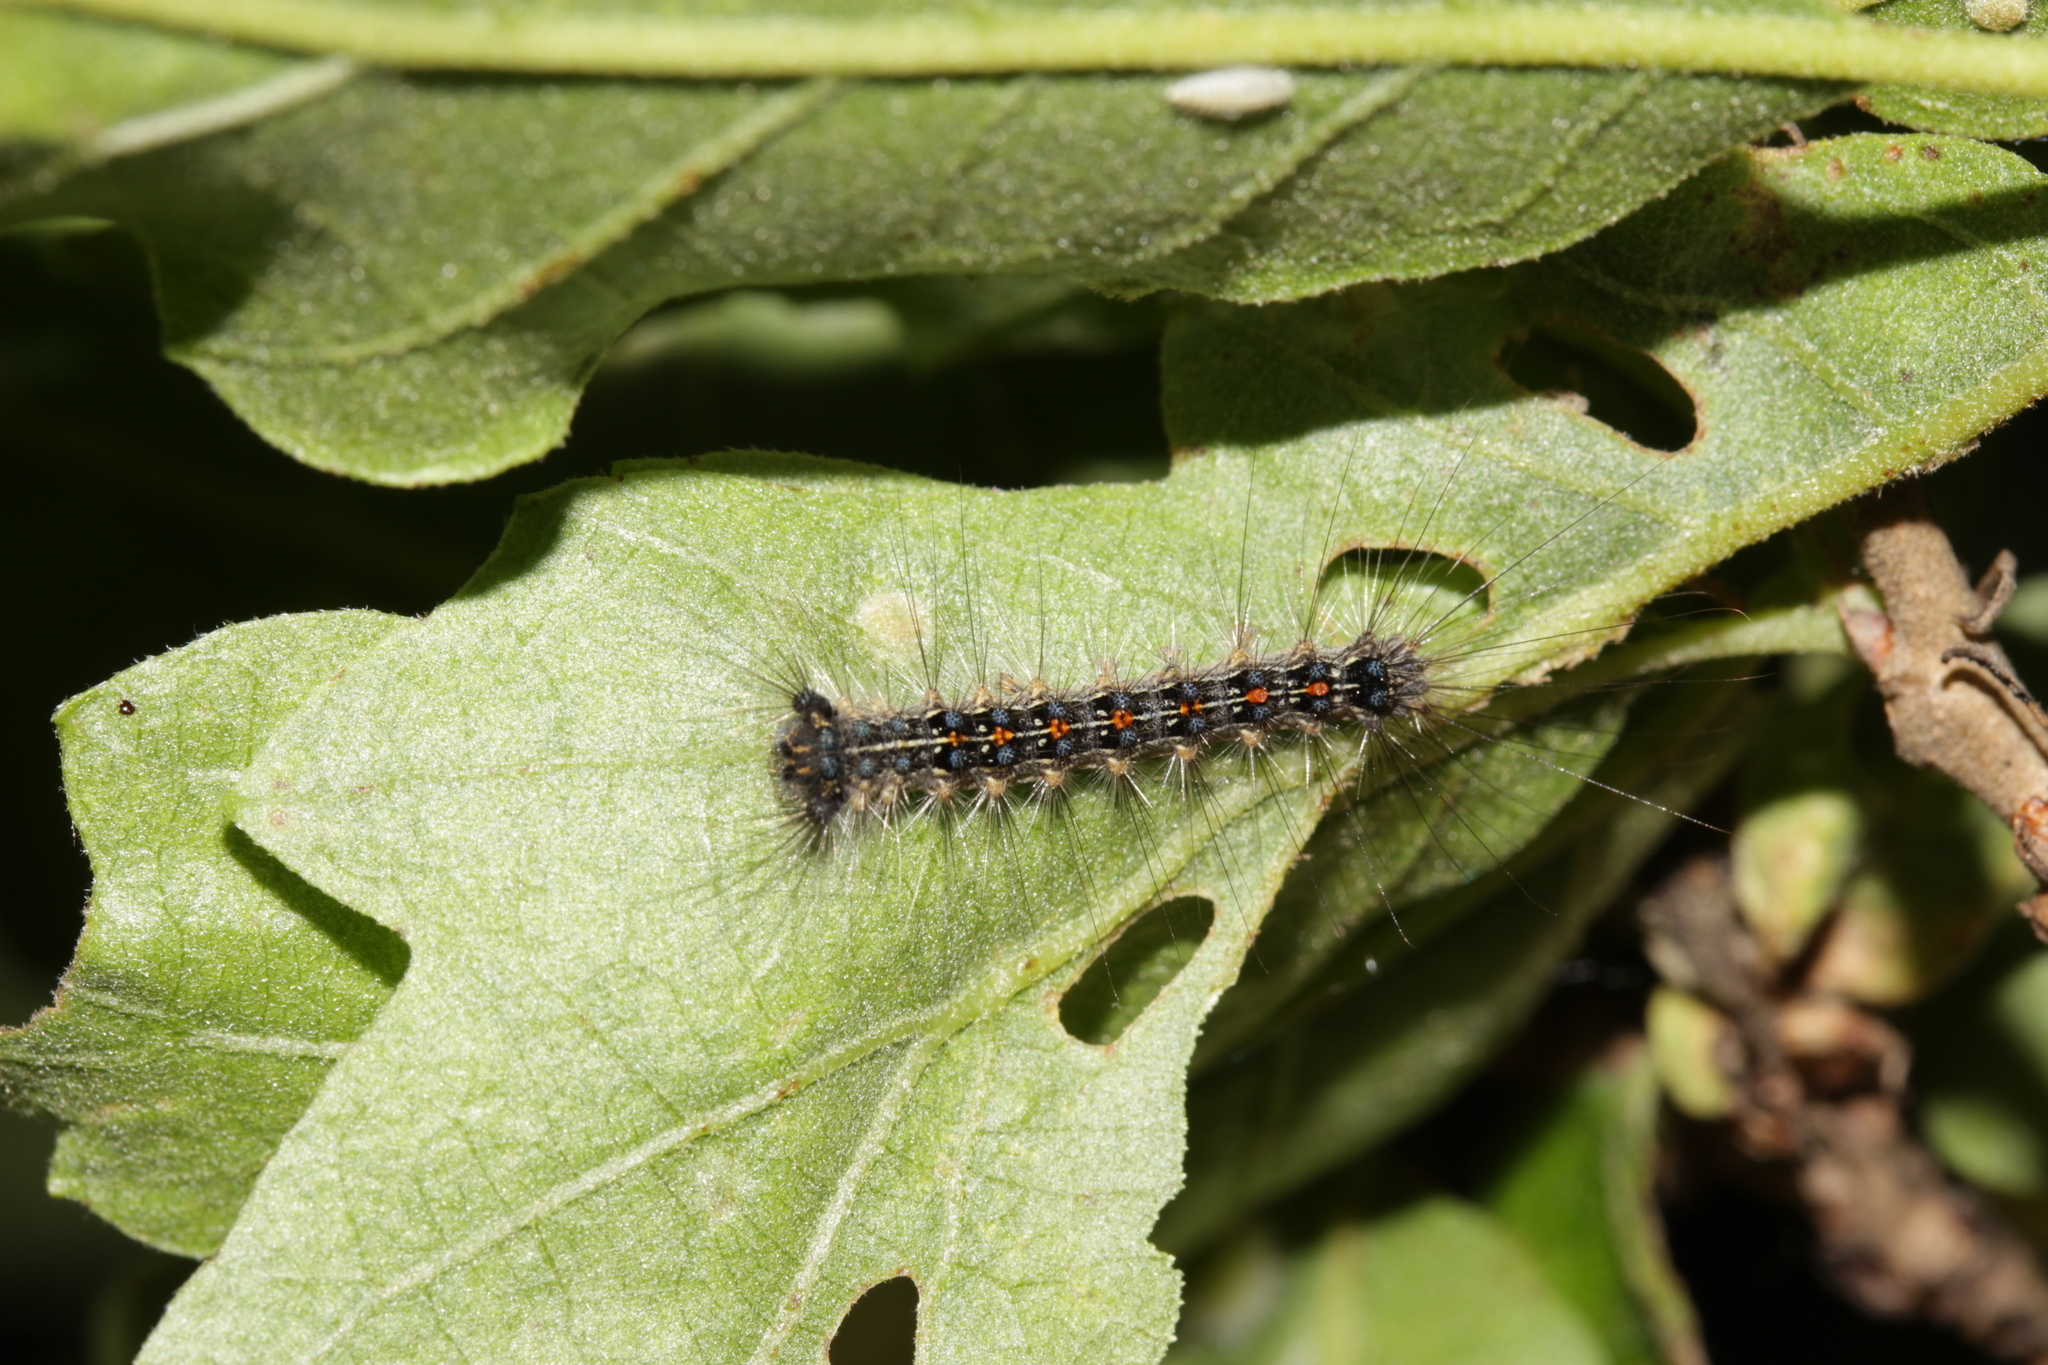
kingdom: Animalia
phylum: Arthropoda
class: Insecta
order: Lepidoptera
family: Erebidae
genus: Lymantria
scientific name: Lymantria dispar
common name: Gypsy moth
